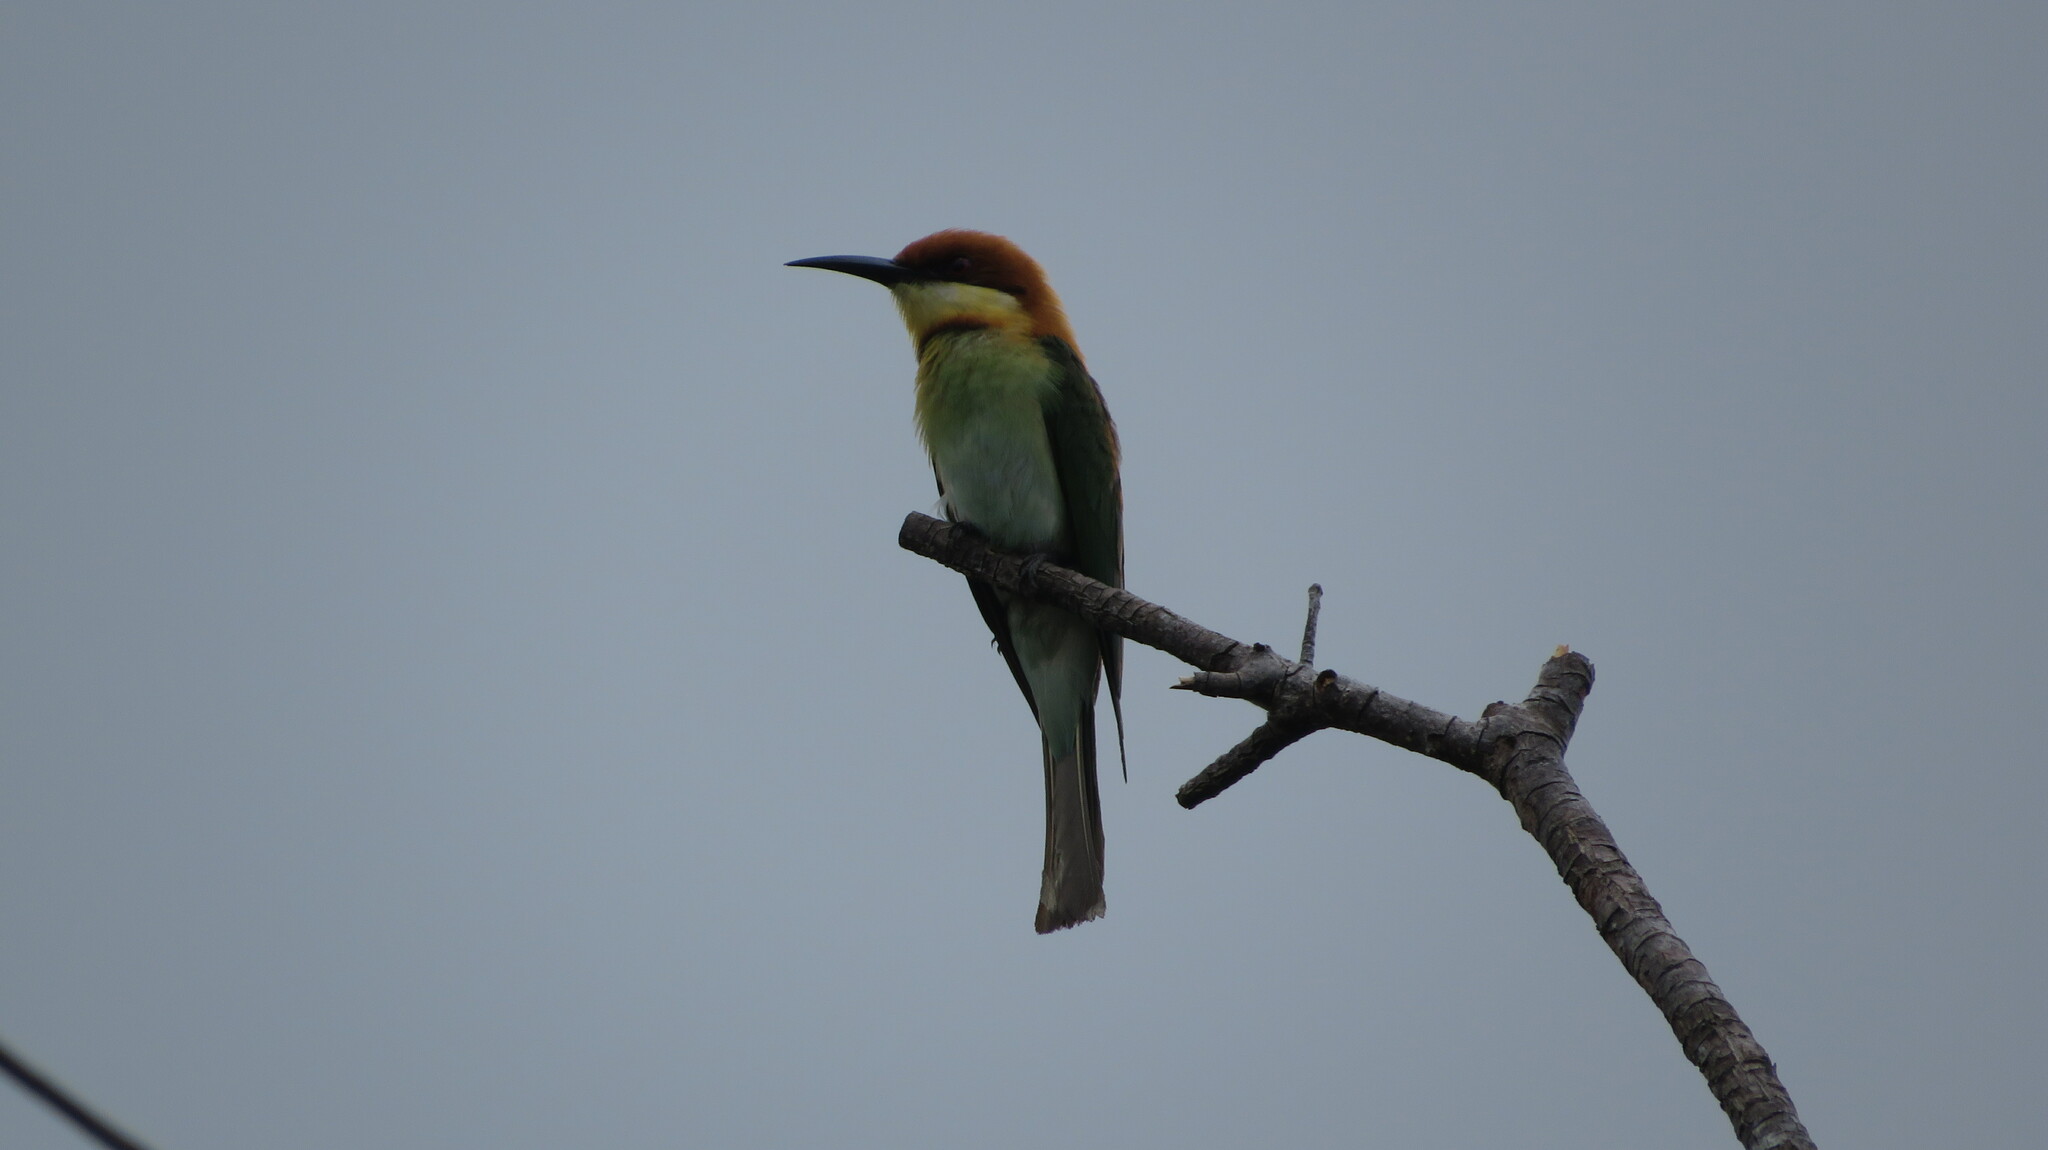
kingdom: Animalia
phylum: Chordata
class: Aves
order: Coraciiformes
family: Meropidae
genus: Merops
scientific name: Merops leschenaulti
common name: Chestnut-headed bee-eater
